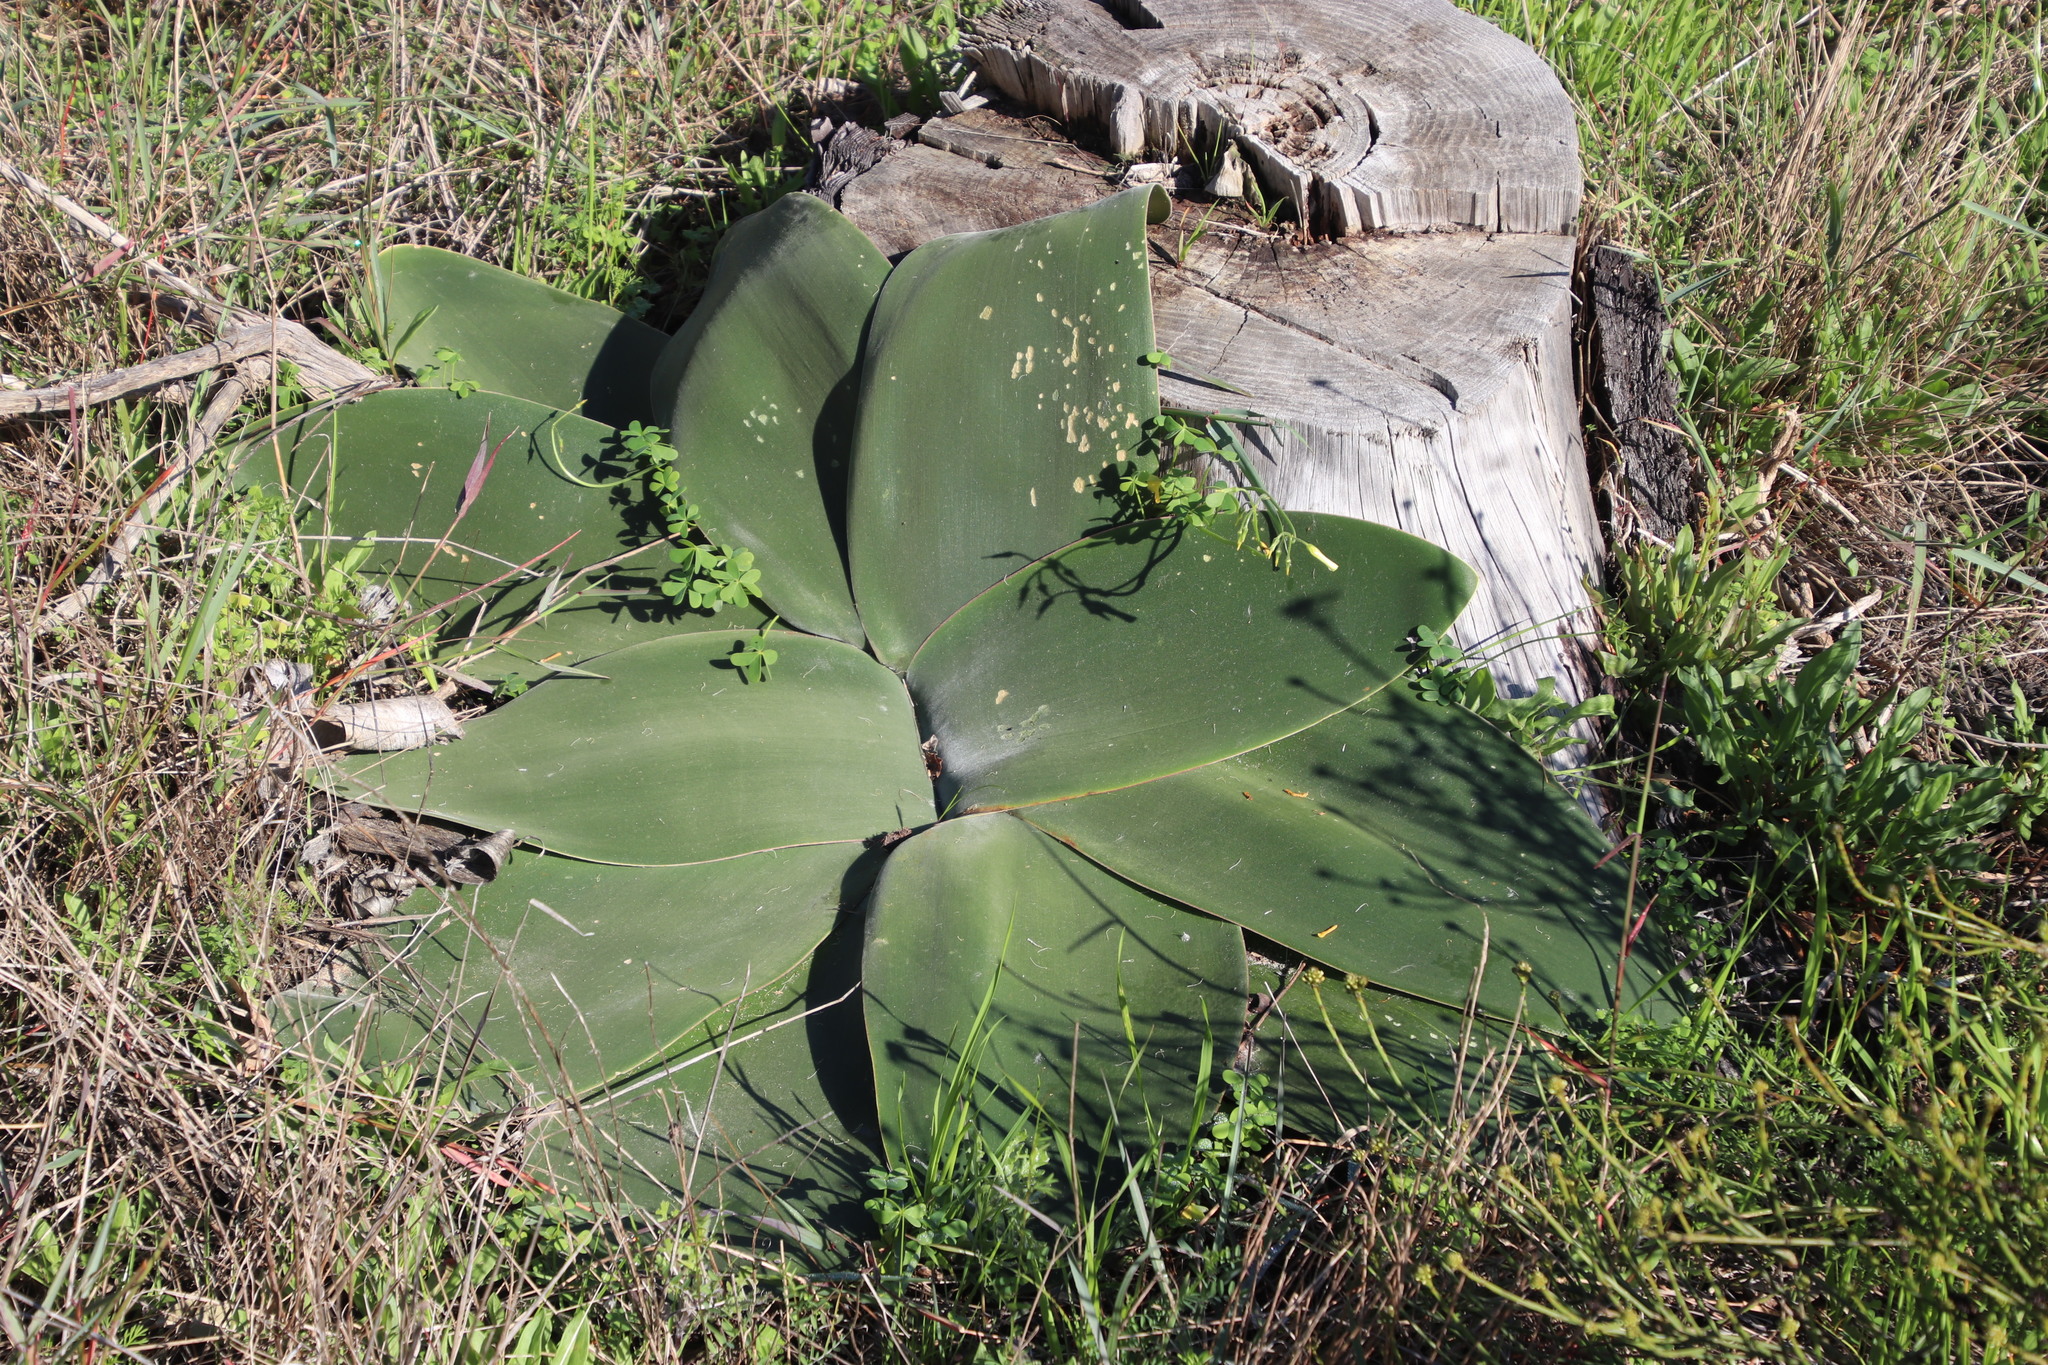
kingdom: Plantae
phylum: Tracheophyta
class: Liliopsida
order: Asparagales
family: Amaryllidaceae
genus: Brunsvigia
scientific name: Brunsvigia orientalis
